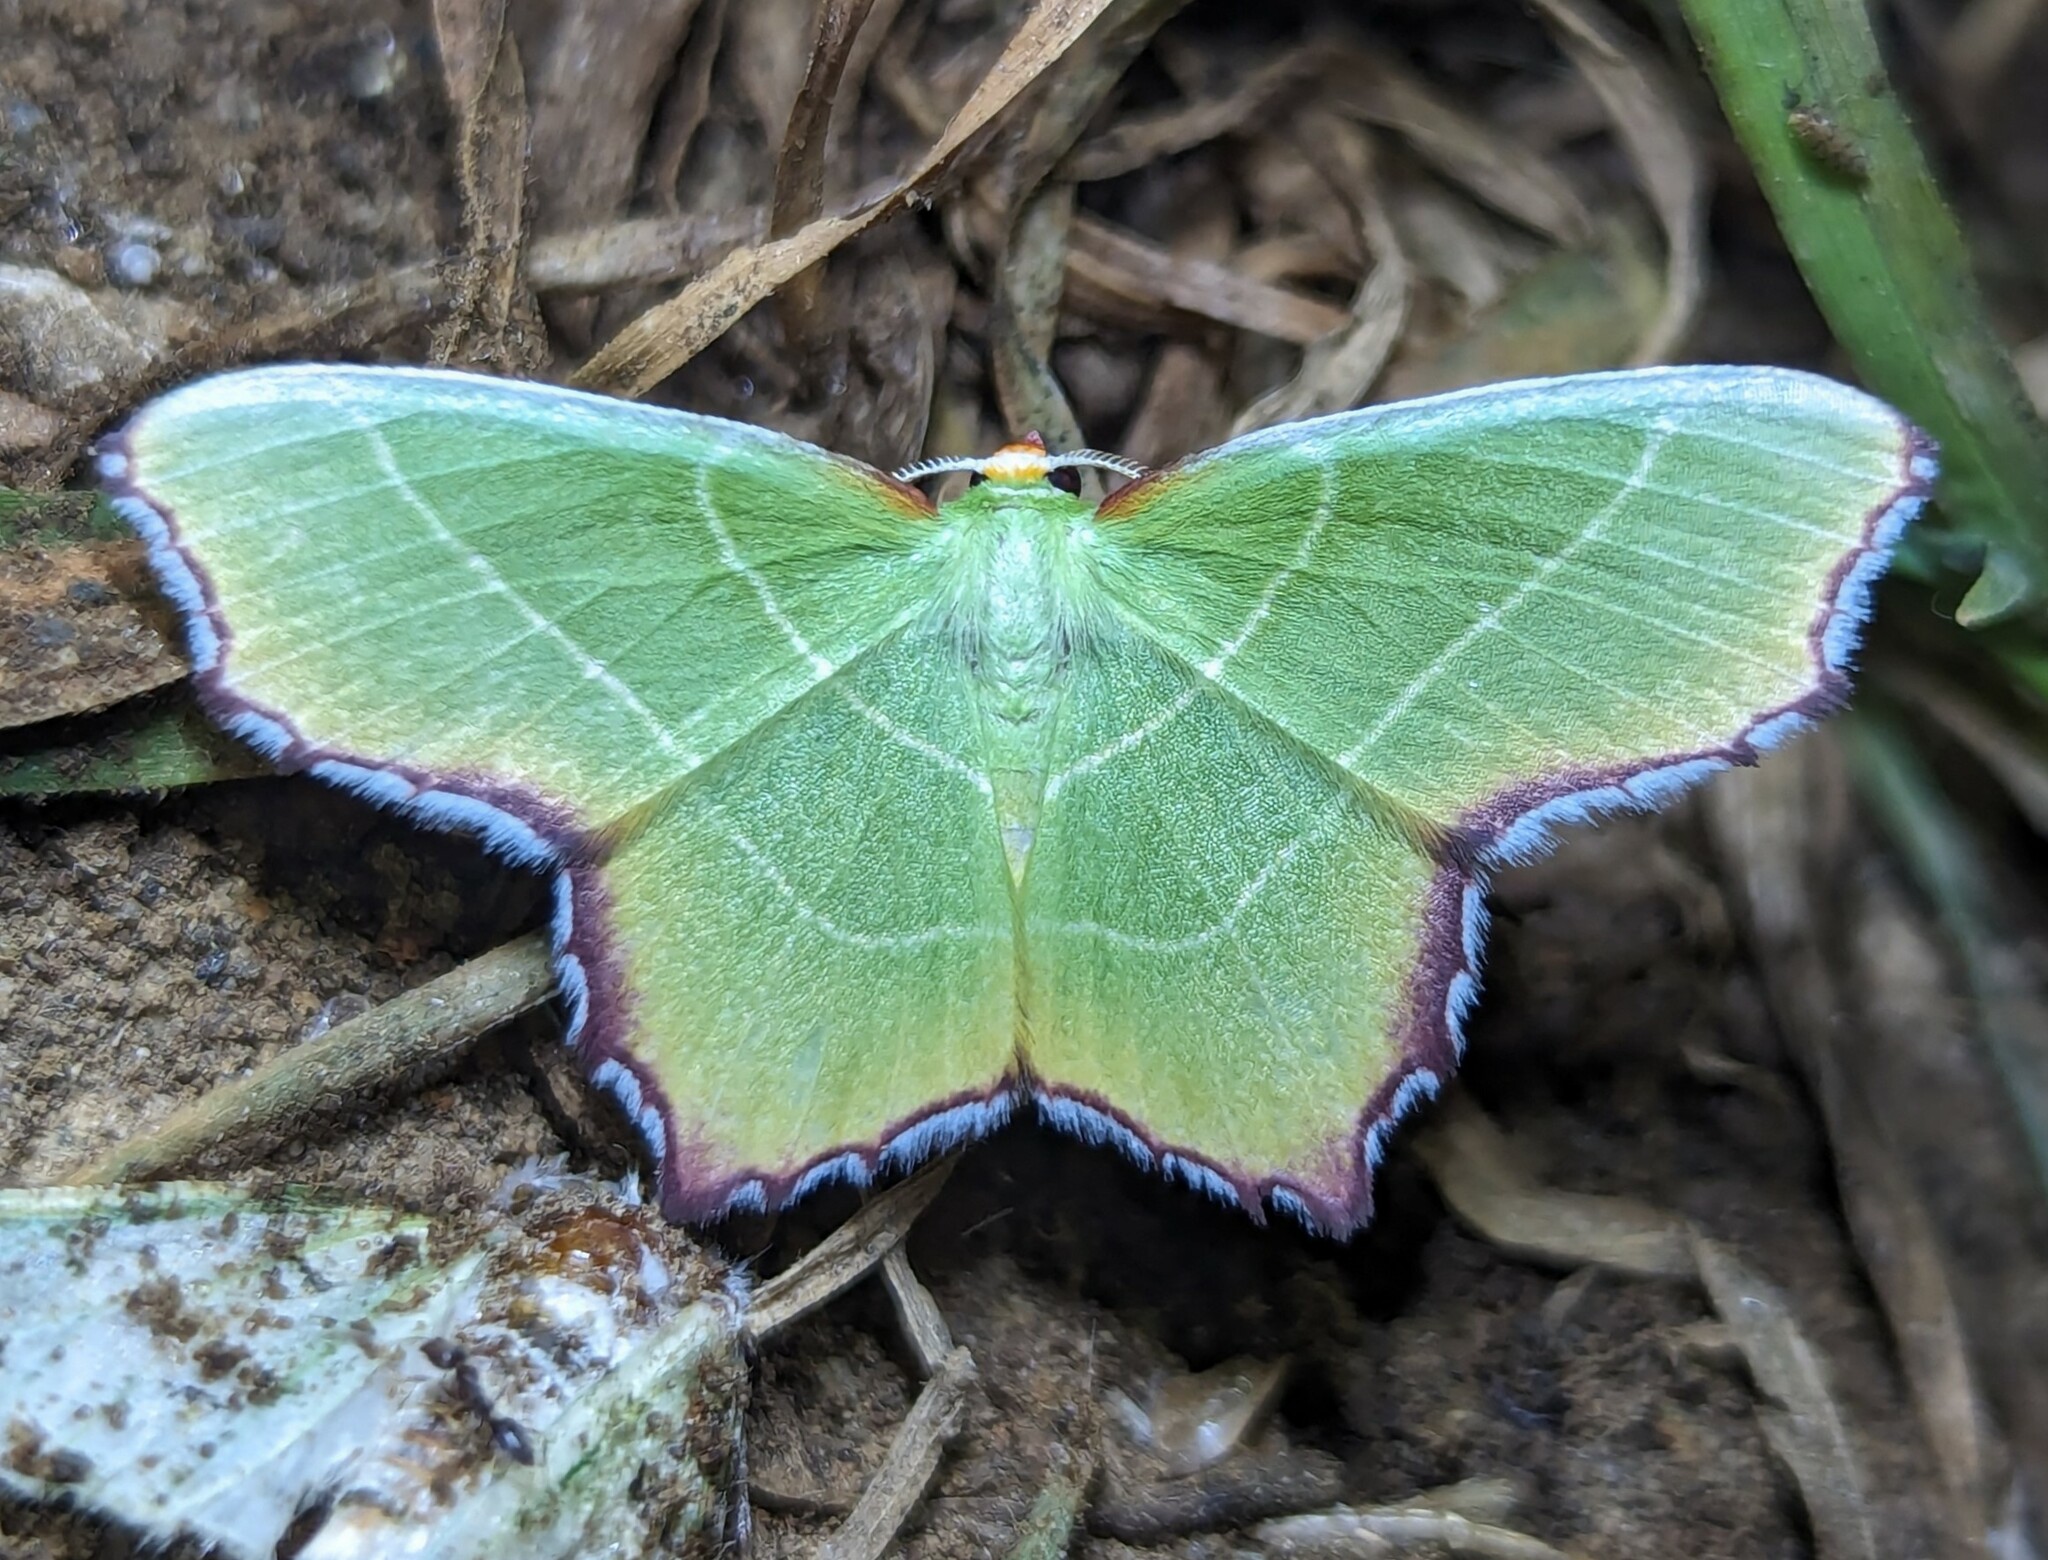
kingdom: Animalia
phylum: Arthropoda
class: Insecta
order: Lepidoptera
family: Geometridae
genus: Poecilochlora
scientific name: Poecilochlora minor
